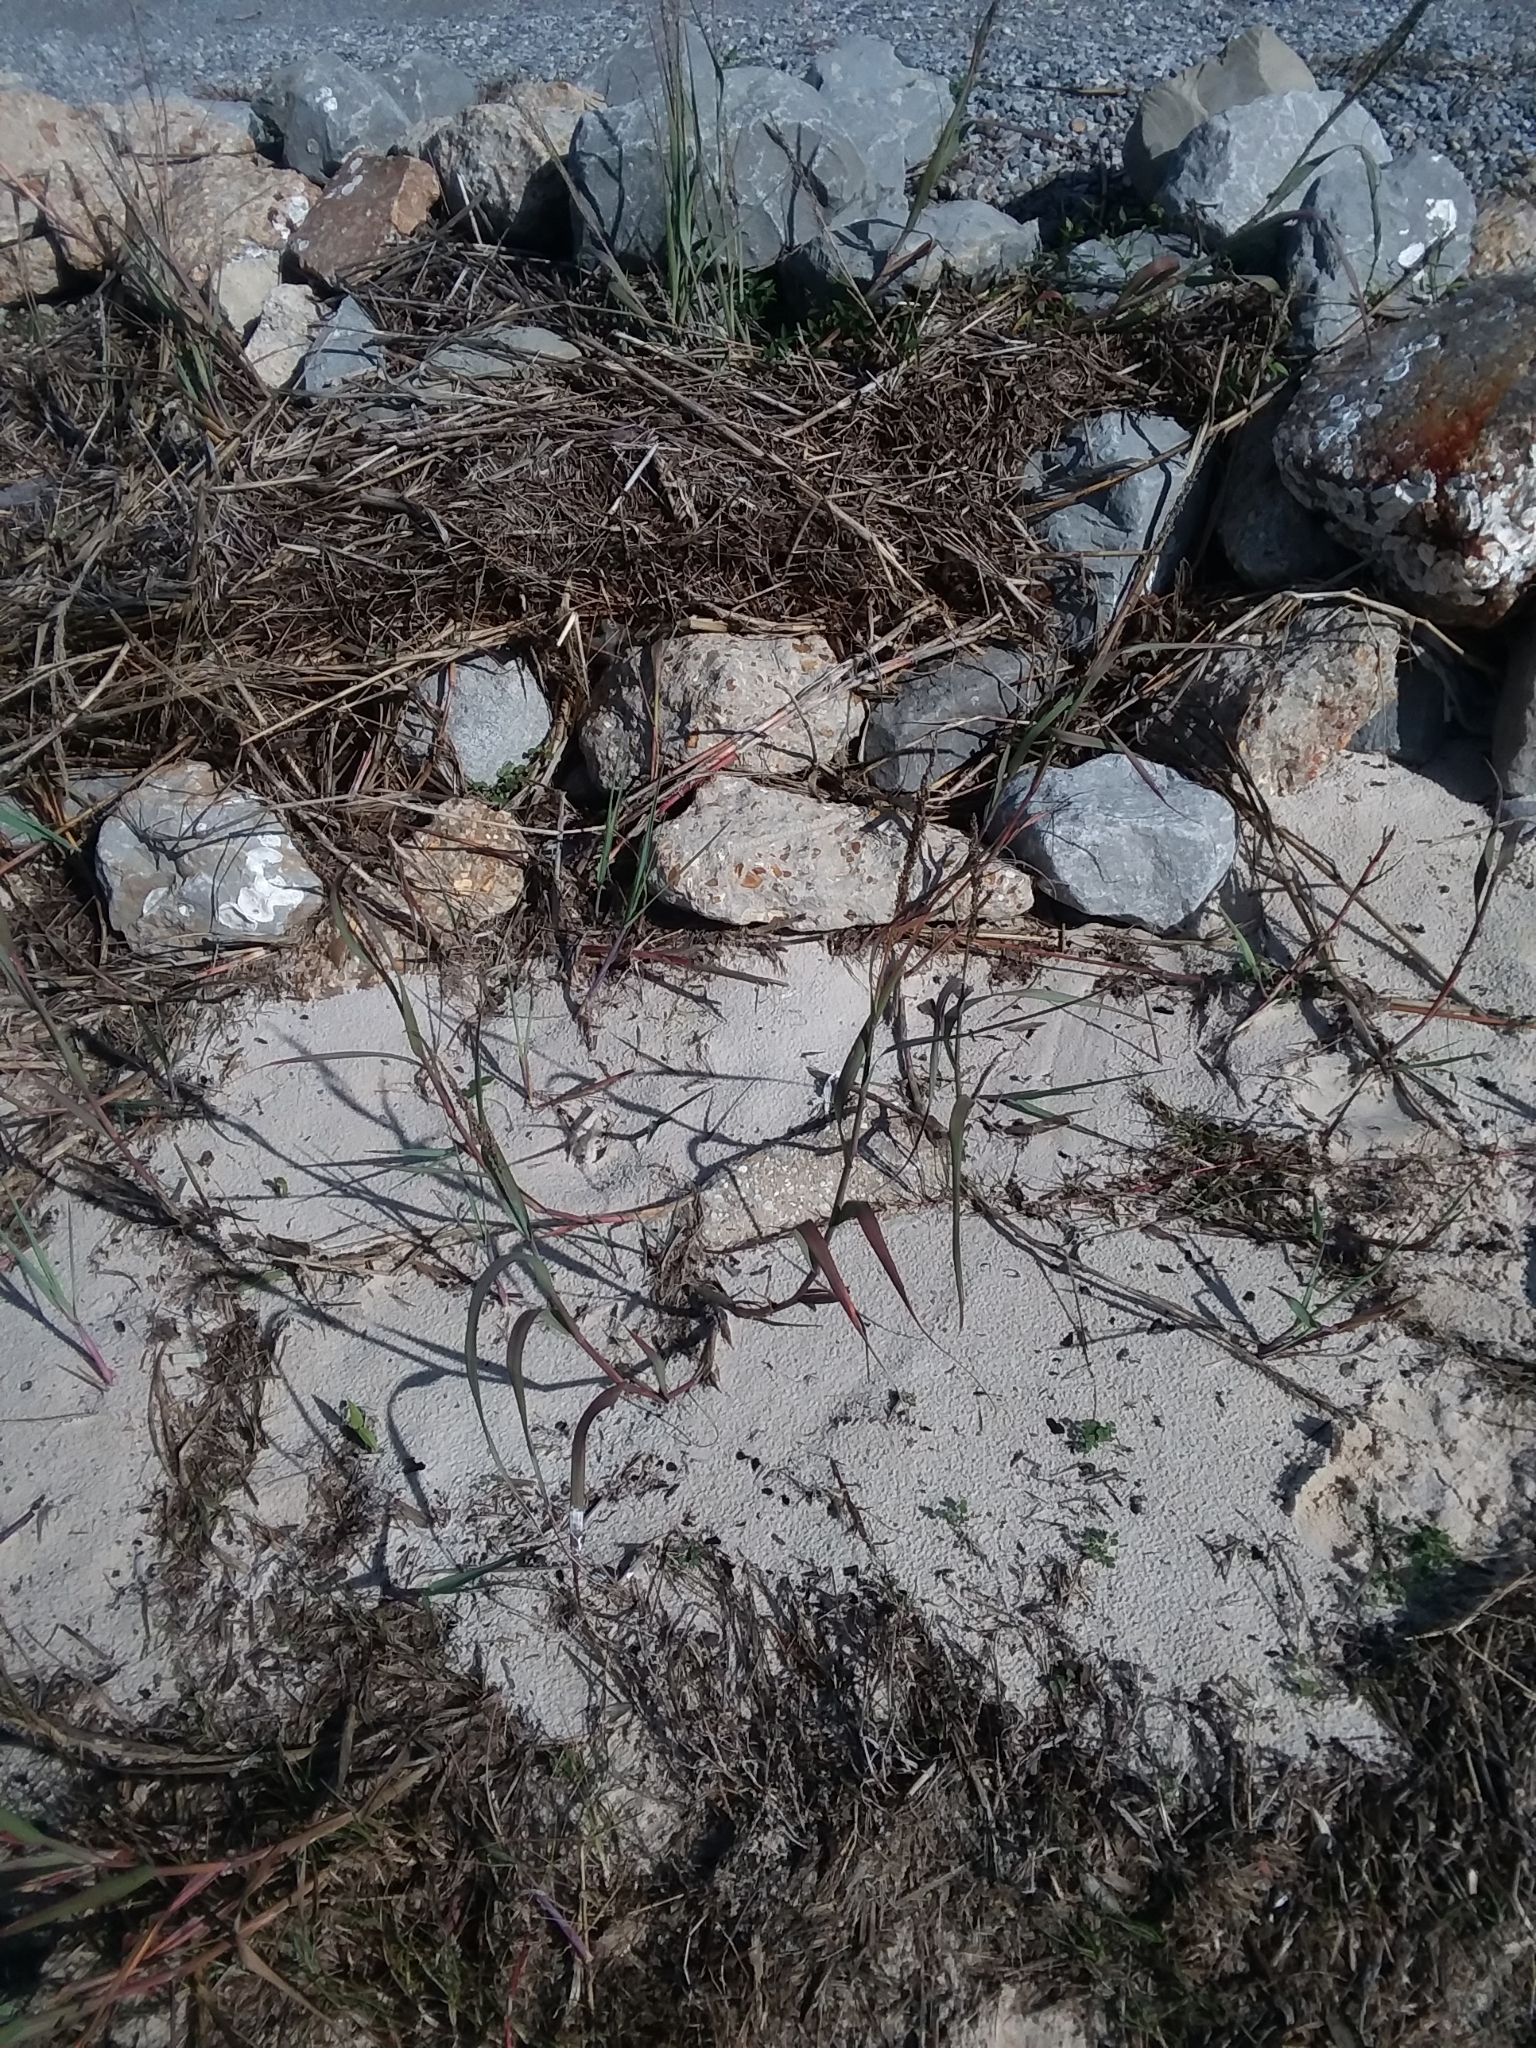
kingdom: Plantae
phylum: Tracheophyta
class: Liliopsida
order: Poales
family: Poaceae
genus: Panicum
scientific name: Panicum amarum
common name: Bitter panicum
